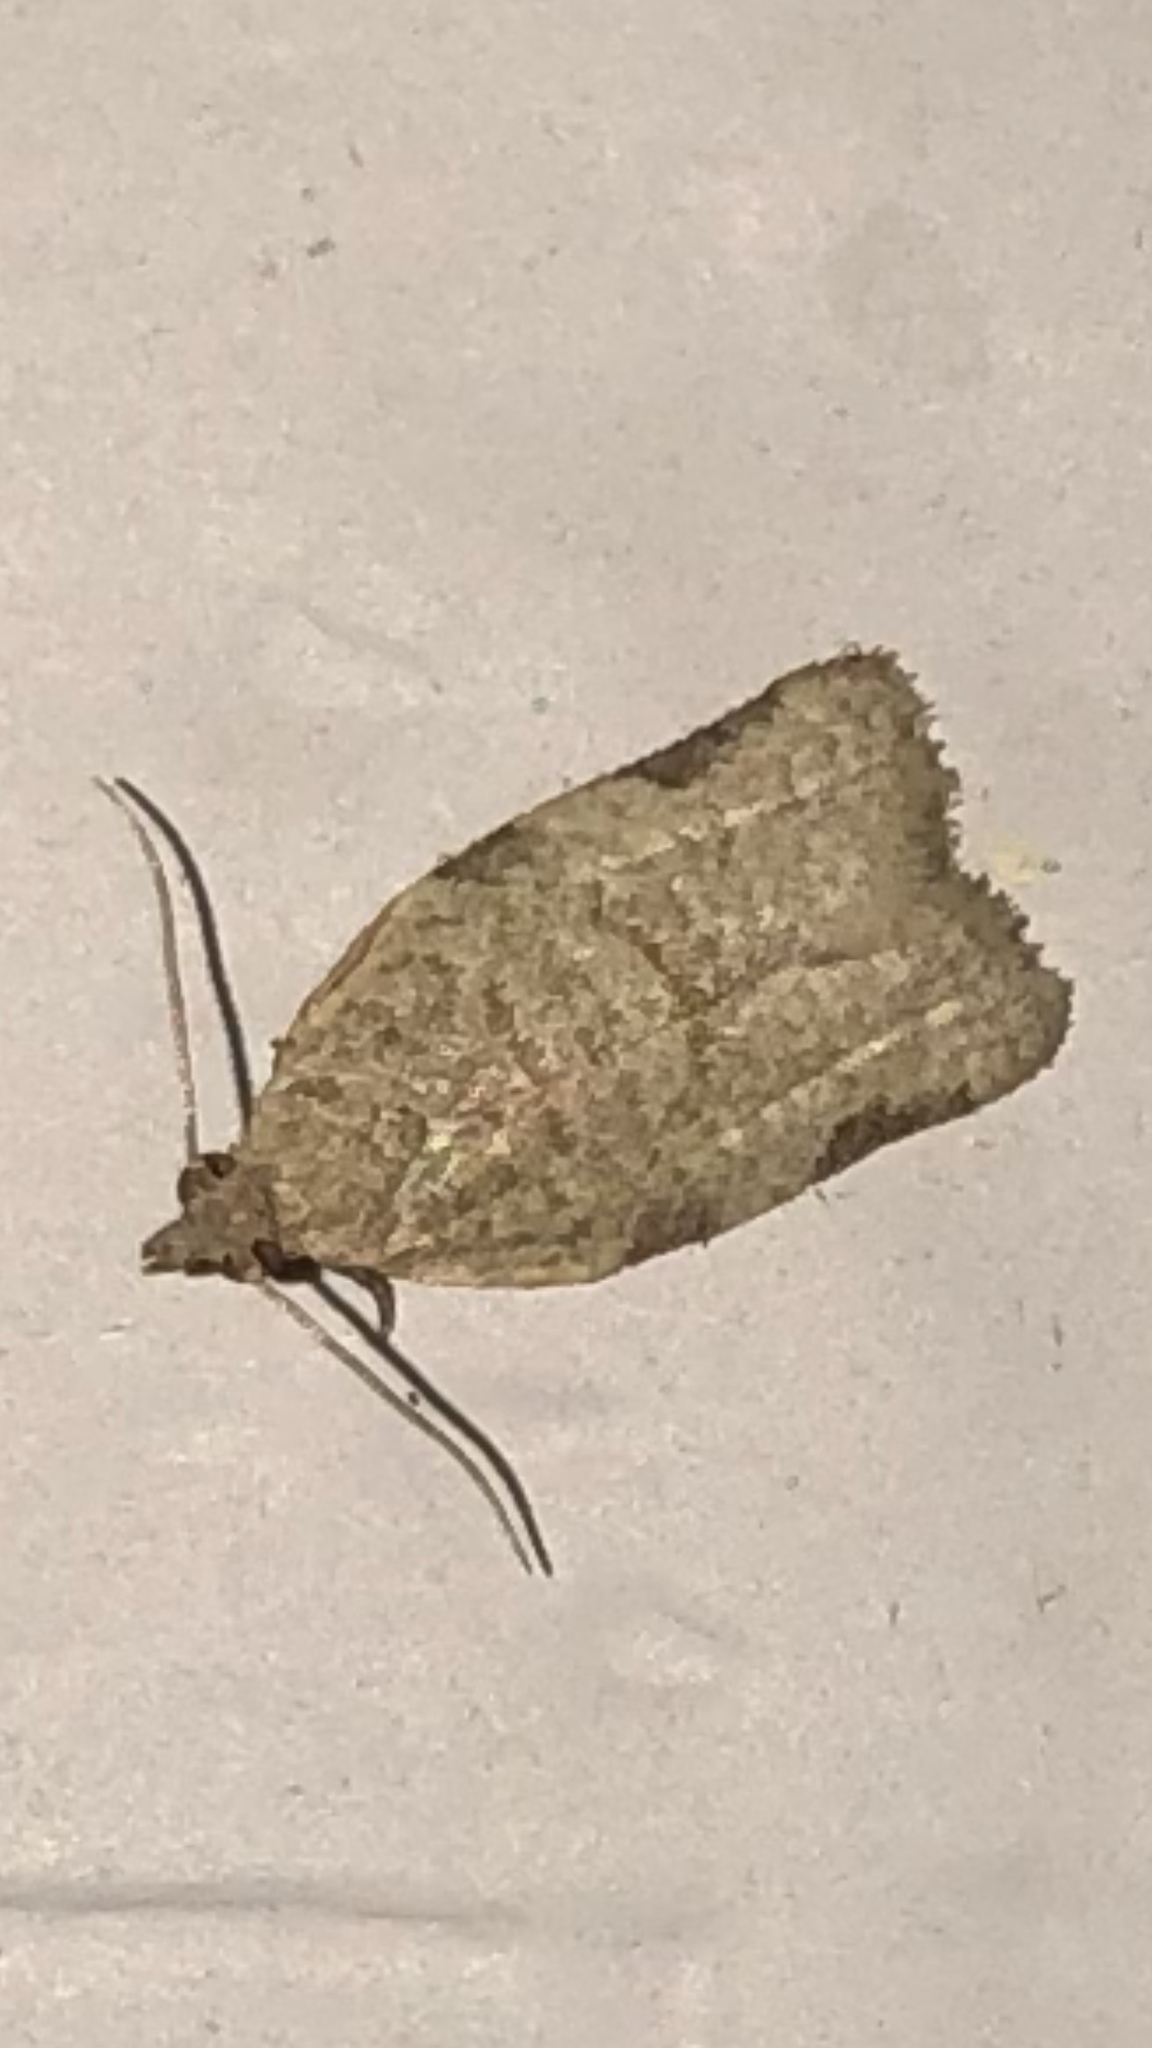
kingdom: Animalia
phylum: Arthropoda
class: Insecta
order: Lepidoptera
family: Tortricidae
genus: Clepsis
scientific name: Clepsis virescana
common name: Greenish apple moth
